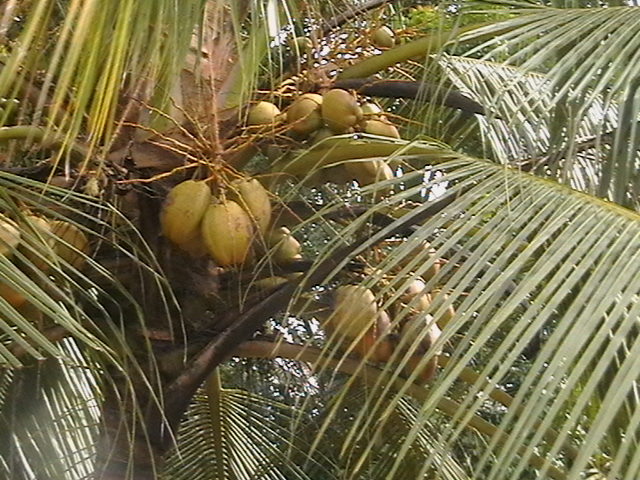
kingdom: Plantae
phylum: Tracheophyta
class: Liliopsida
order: Arecales
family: Arecaceae
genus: Cocos
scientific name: Cocos nucifera
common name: Coconut palm
